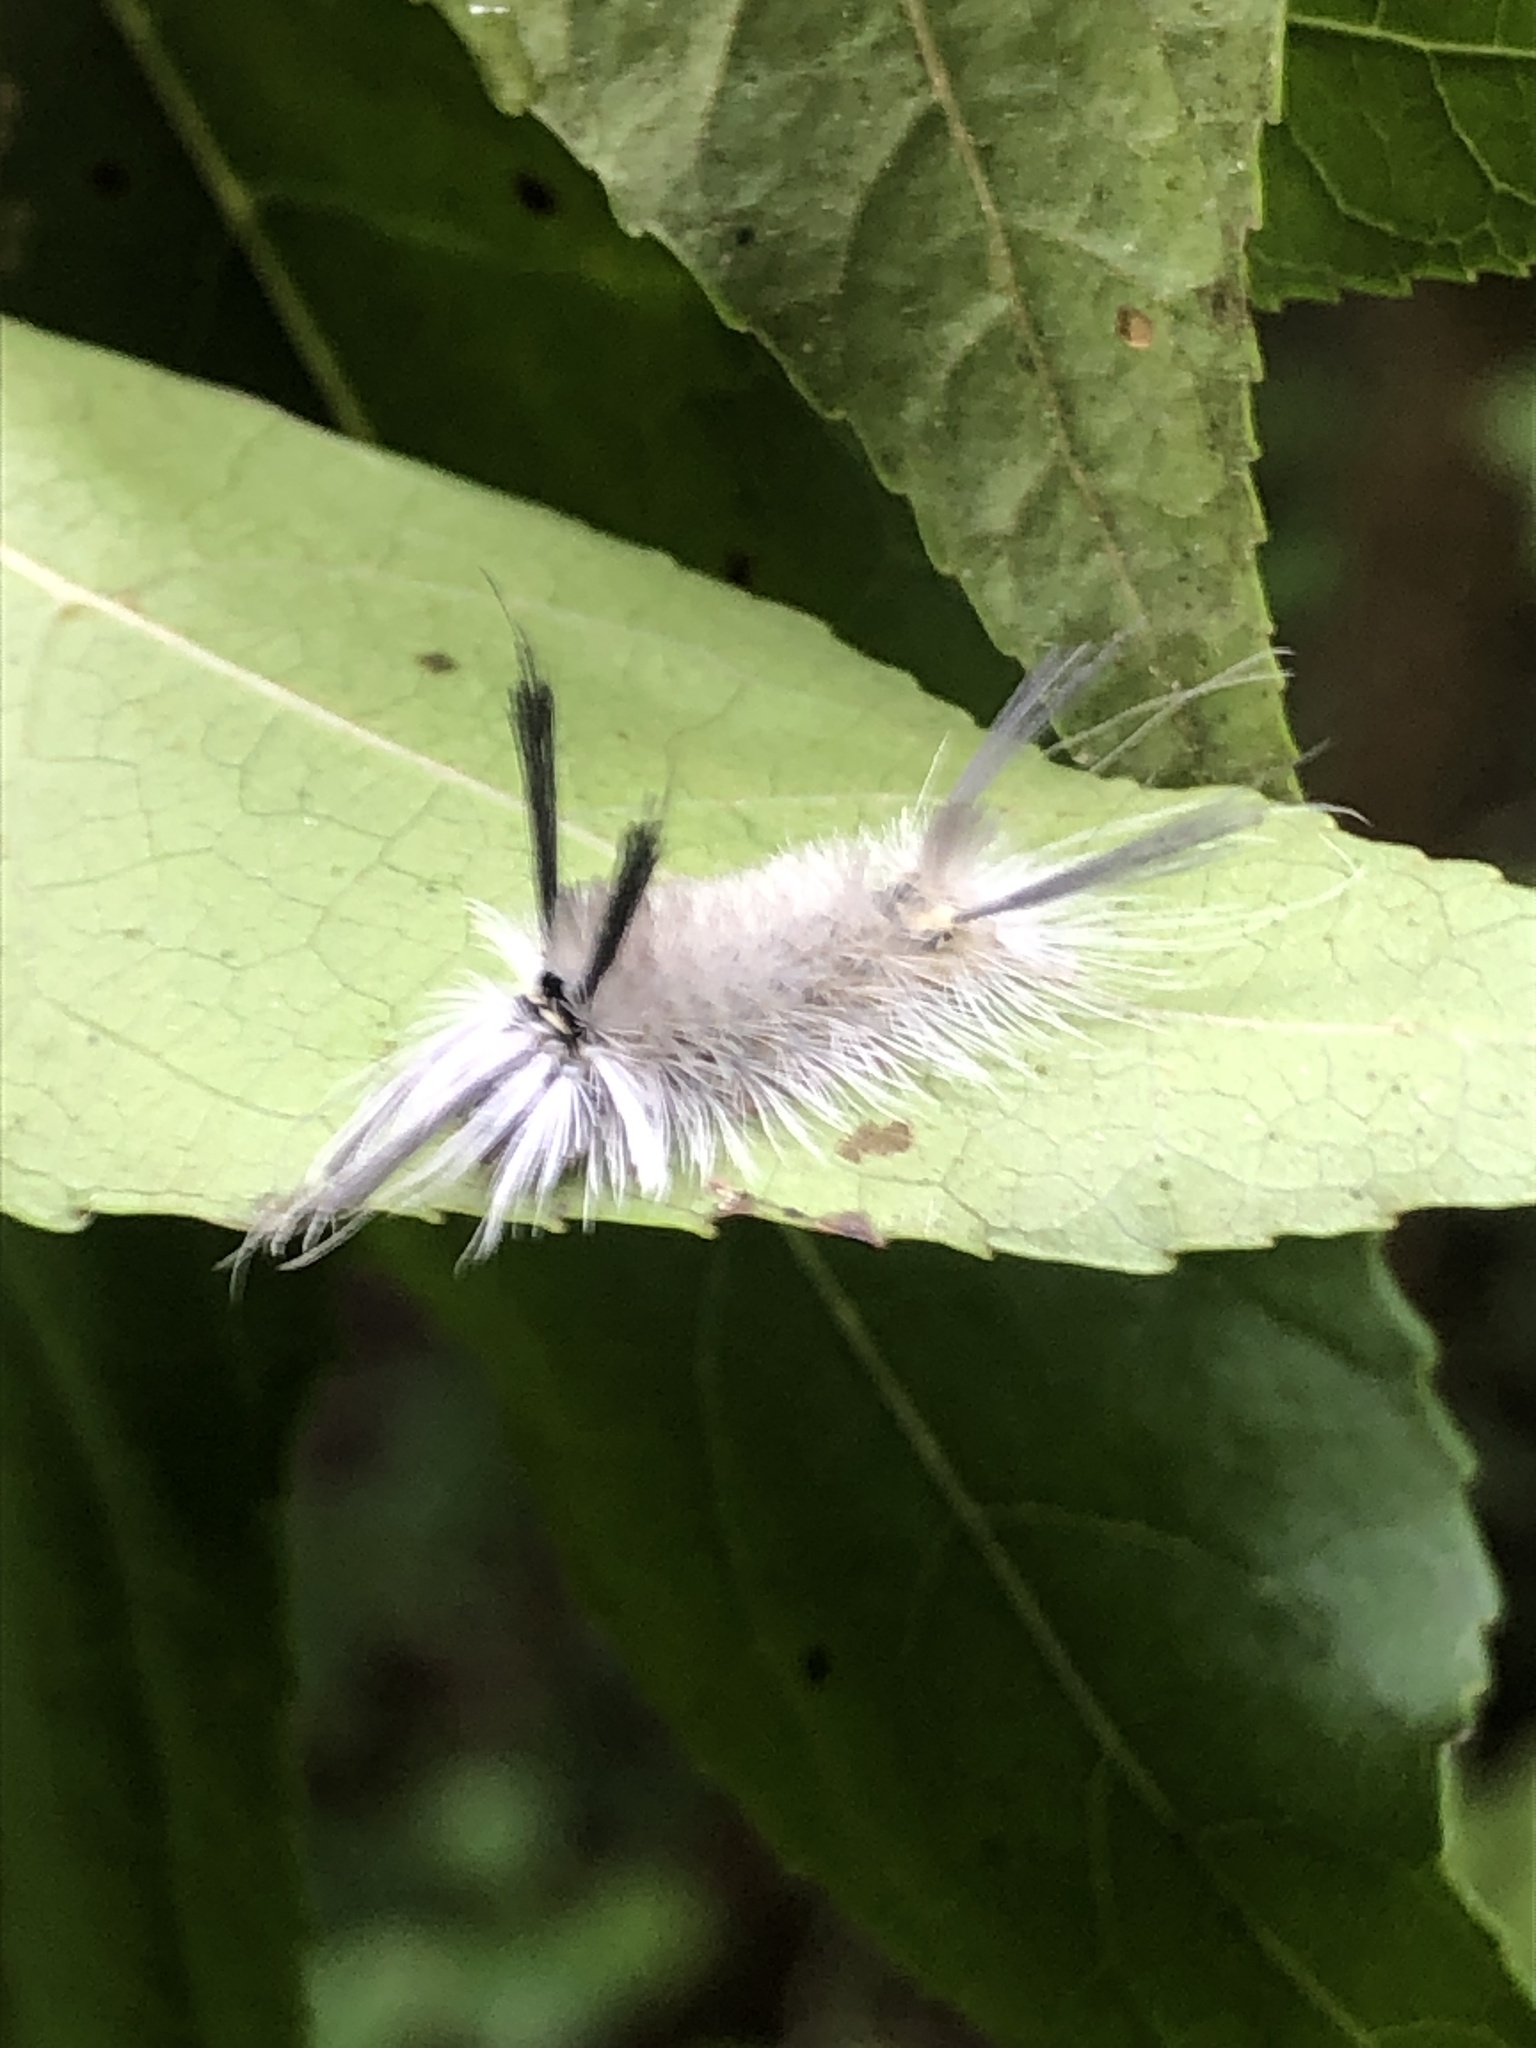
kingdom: Animalia
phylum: Arthropoda
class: Insecta
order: Lepidoptera
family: Erebidae
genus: Halysidota
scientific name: Halysidota tessellaris
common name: Banded tussock moth
